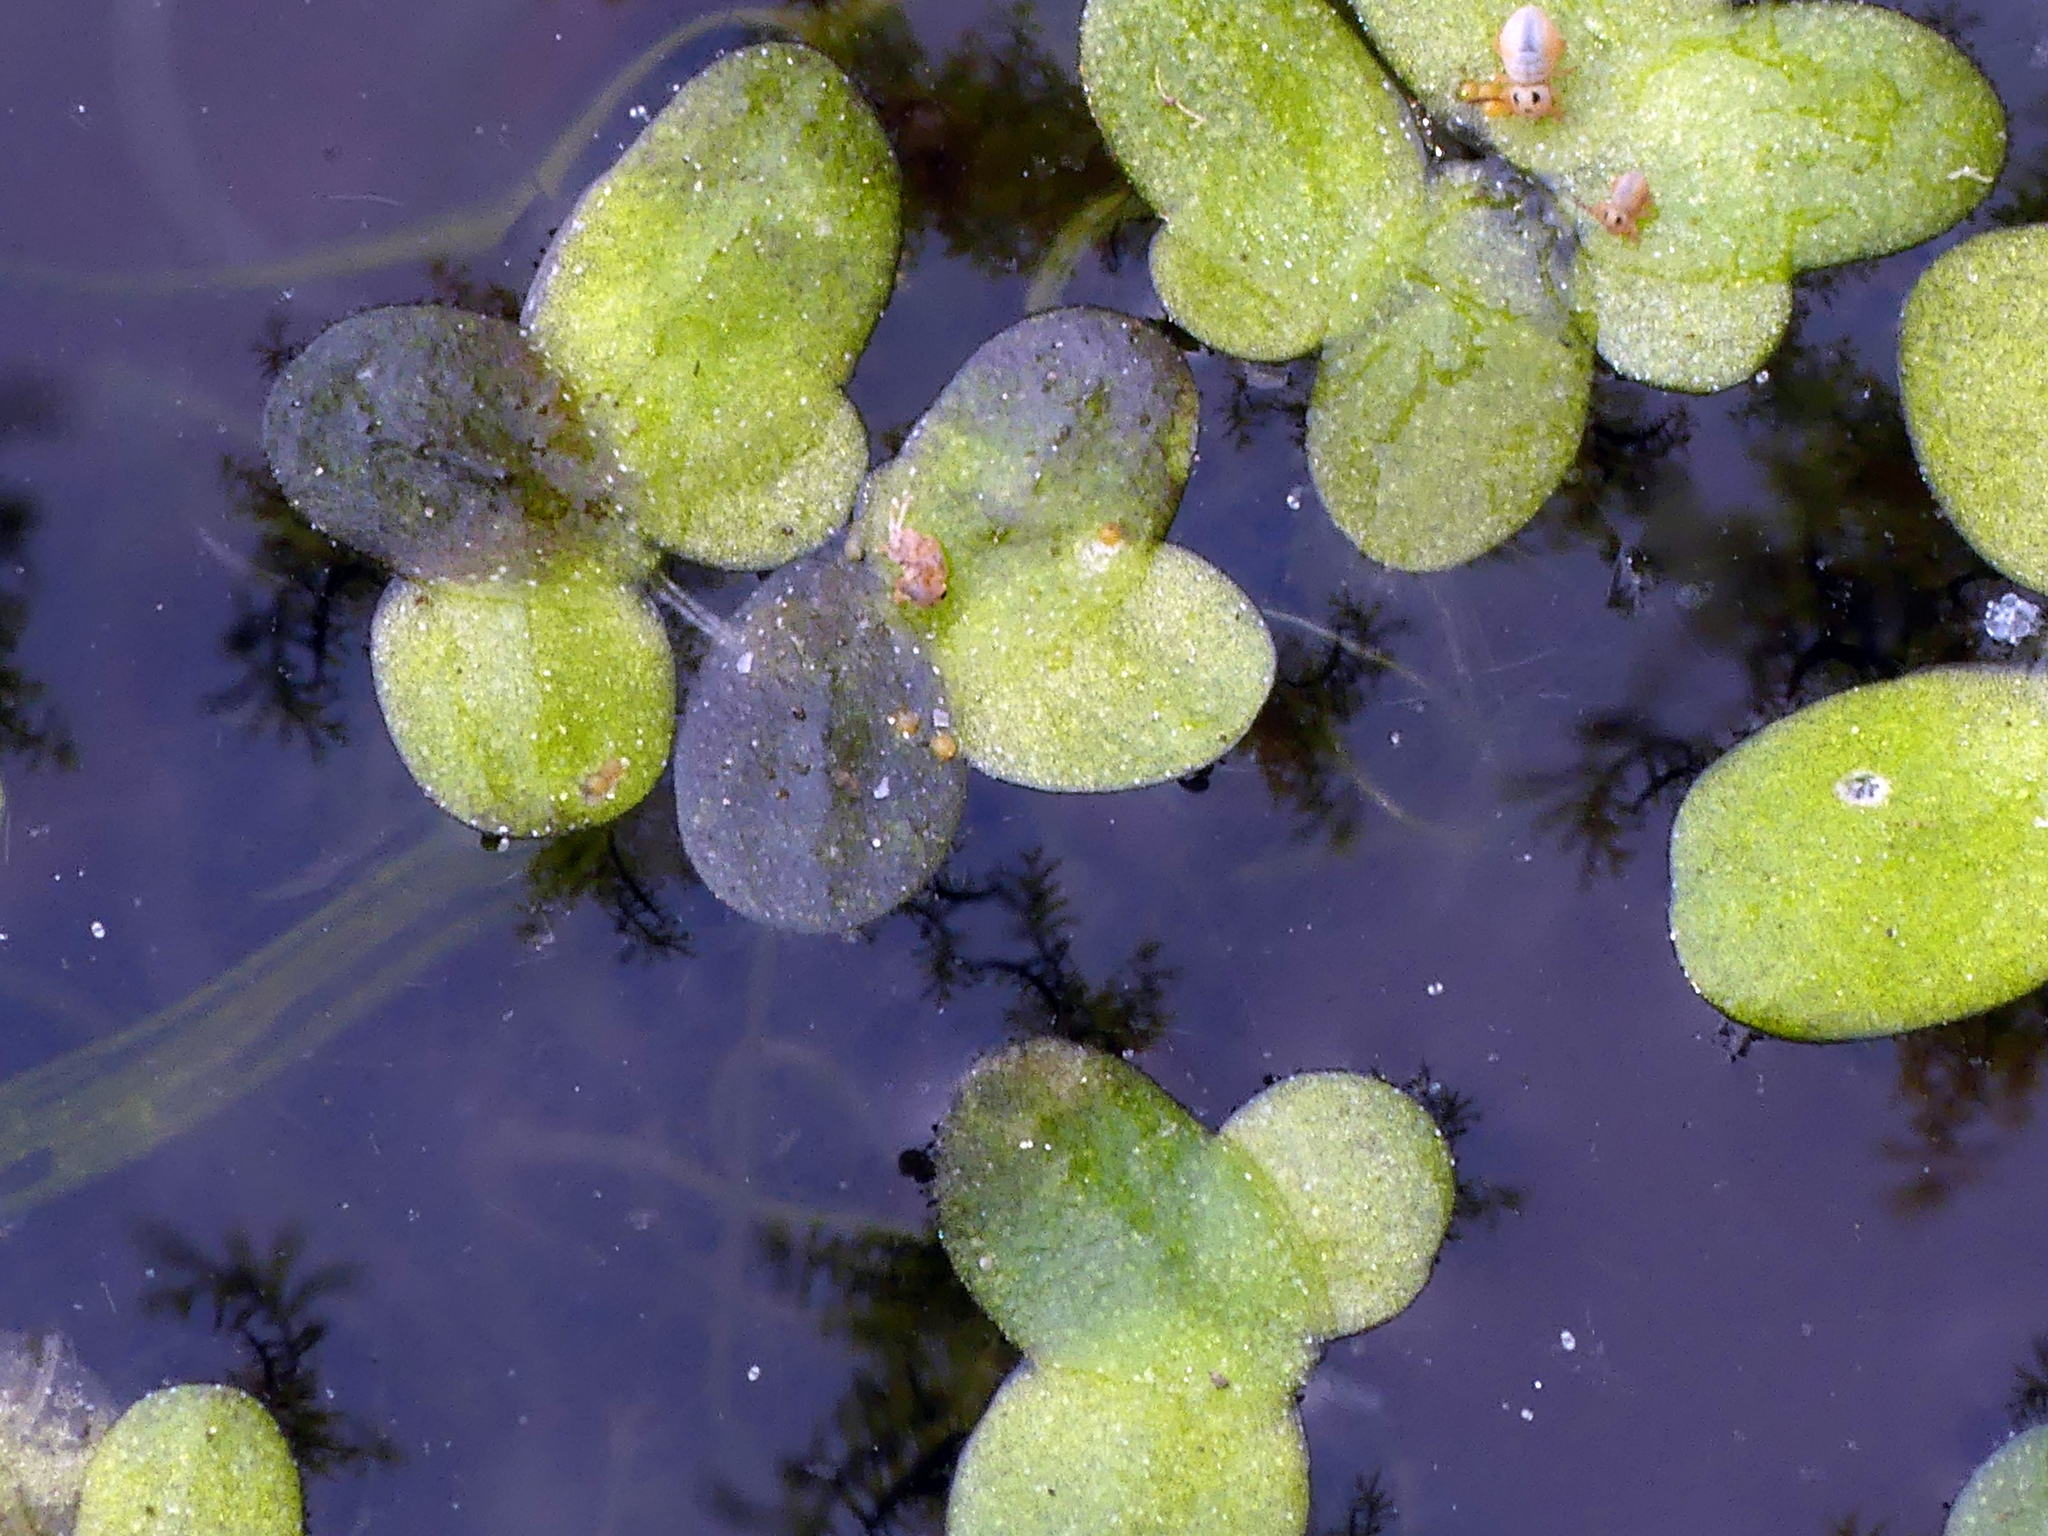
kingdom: Plantae
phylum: Tracheophyta
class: Liliopsida
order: Alismatales
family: Araceae
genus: Lemna
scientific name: Lemna minor
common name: Common duckweed
